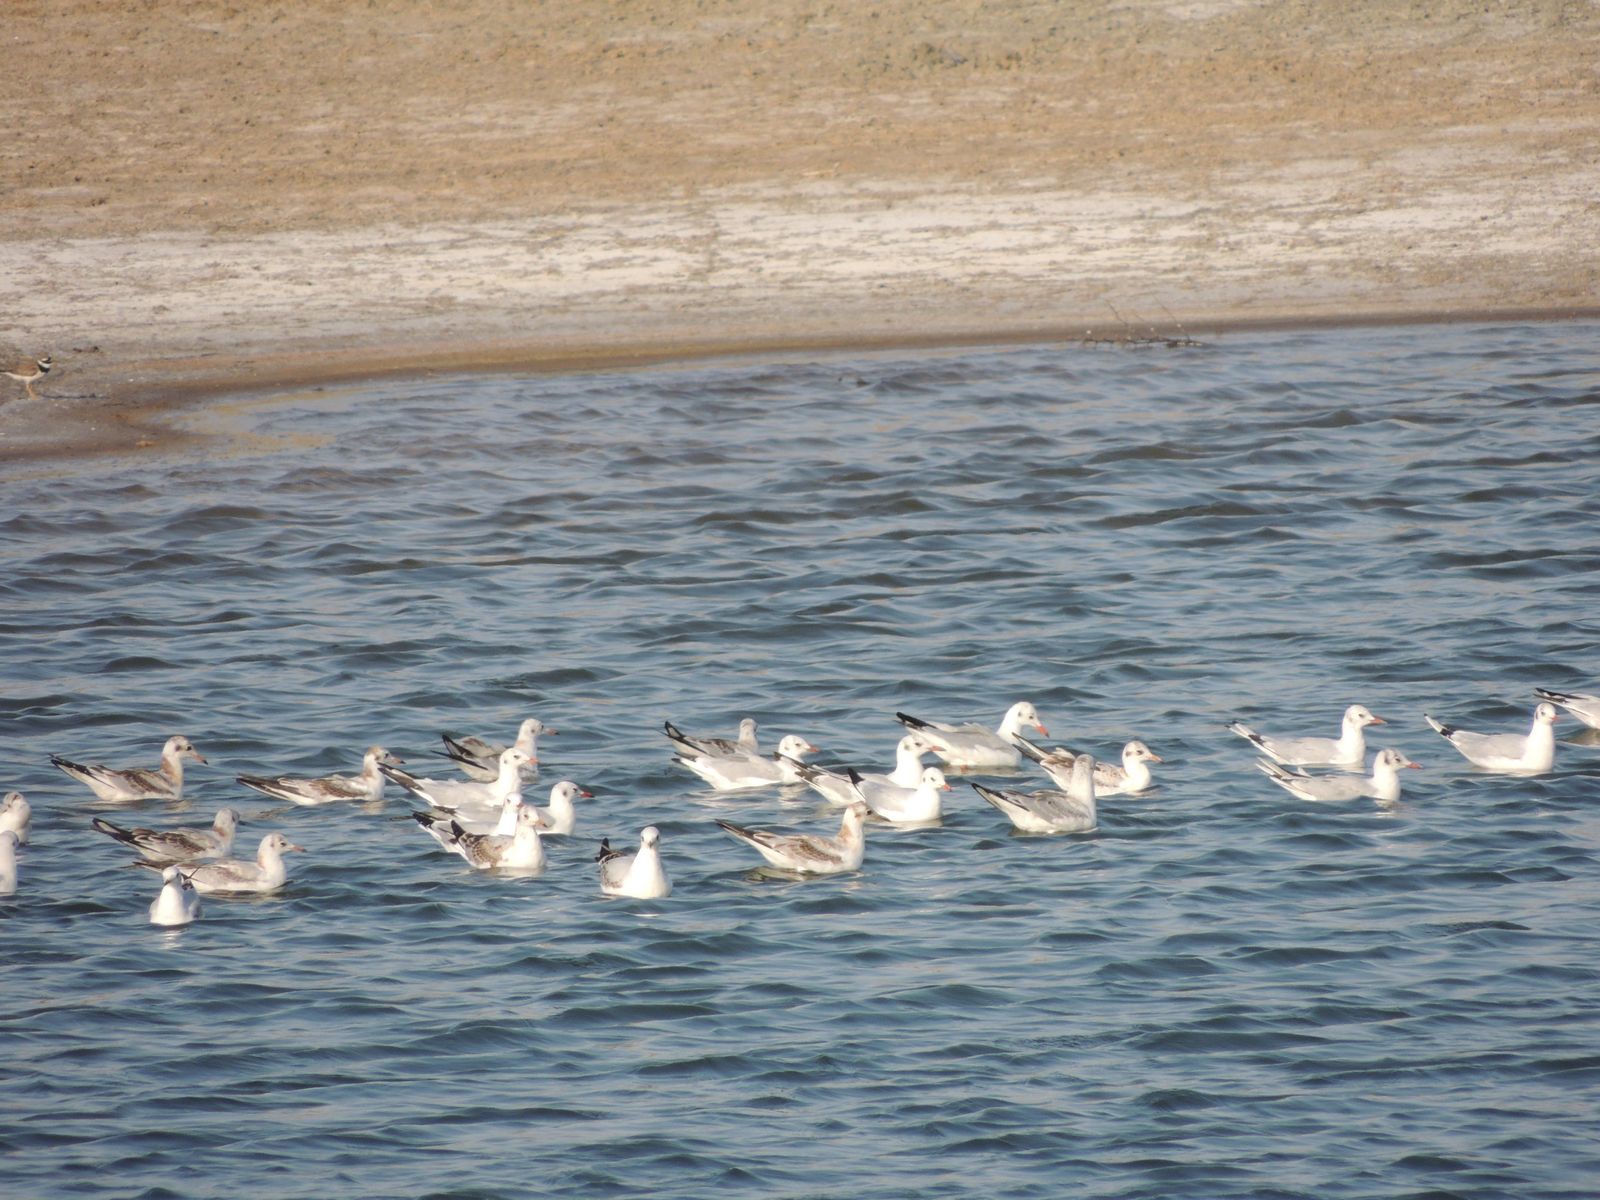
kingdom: Animalia
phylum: Chordata
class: Aves
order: Charadriiformes
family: Laridae
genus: Chroicocephalus
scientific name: Chroicocephalus ridibundus
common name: Black-headed gull
